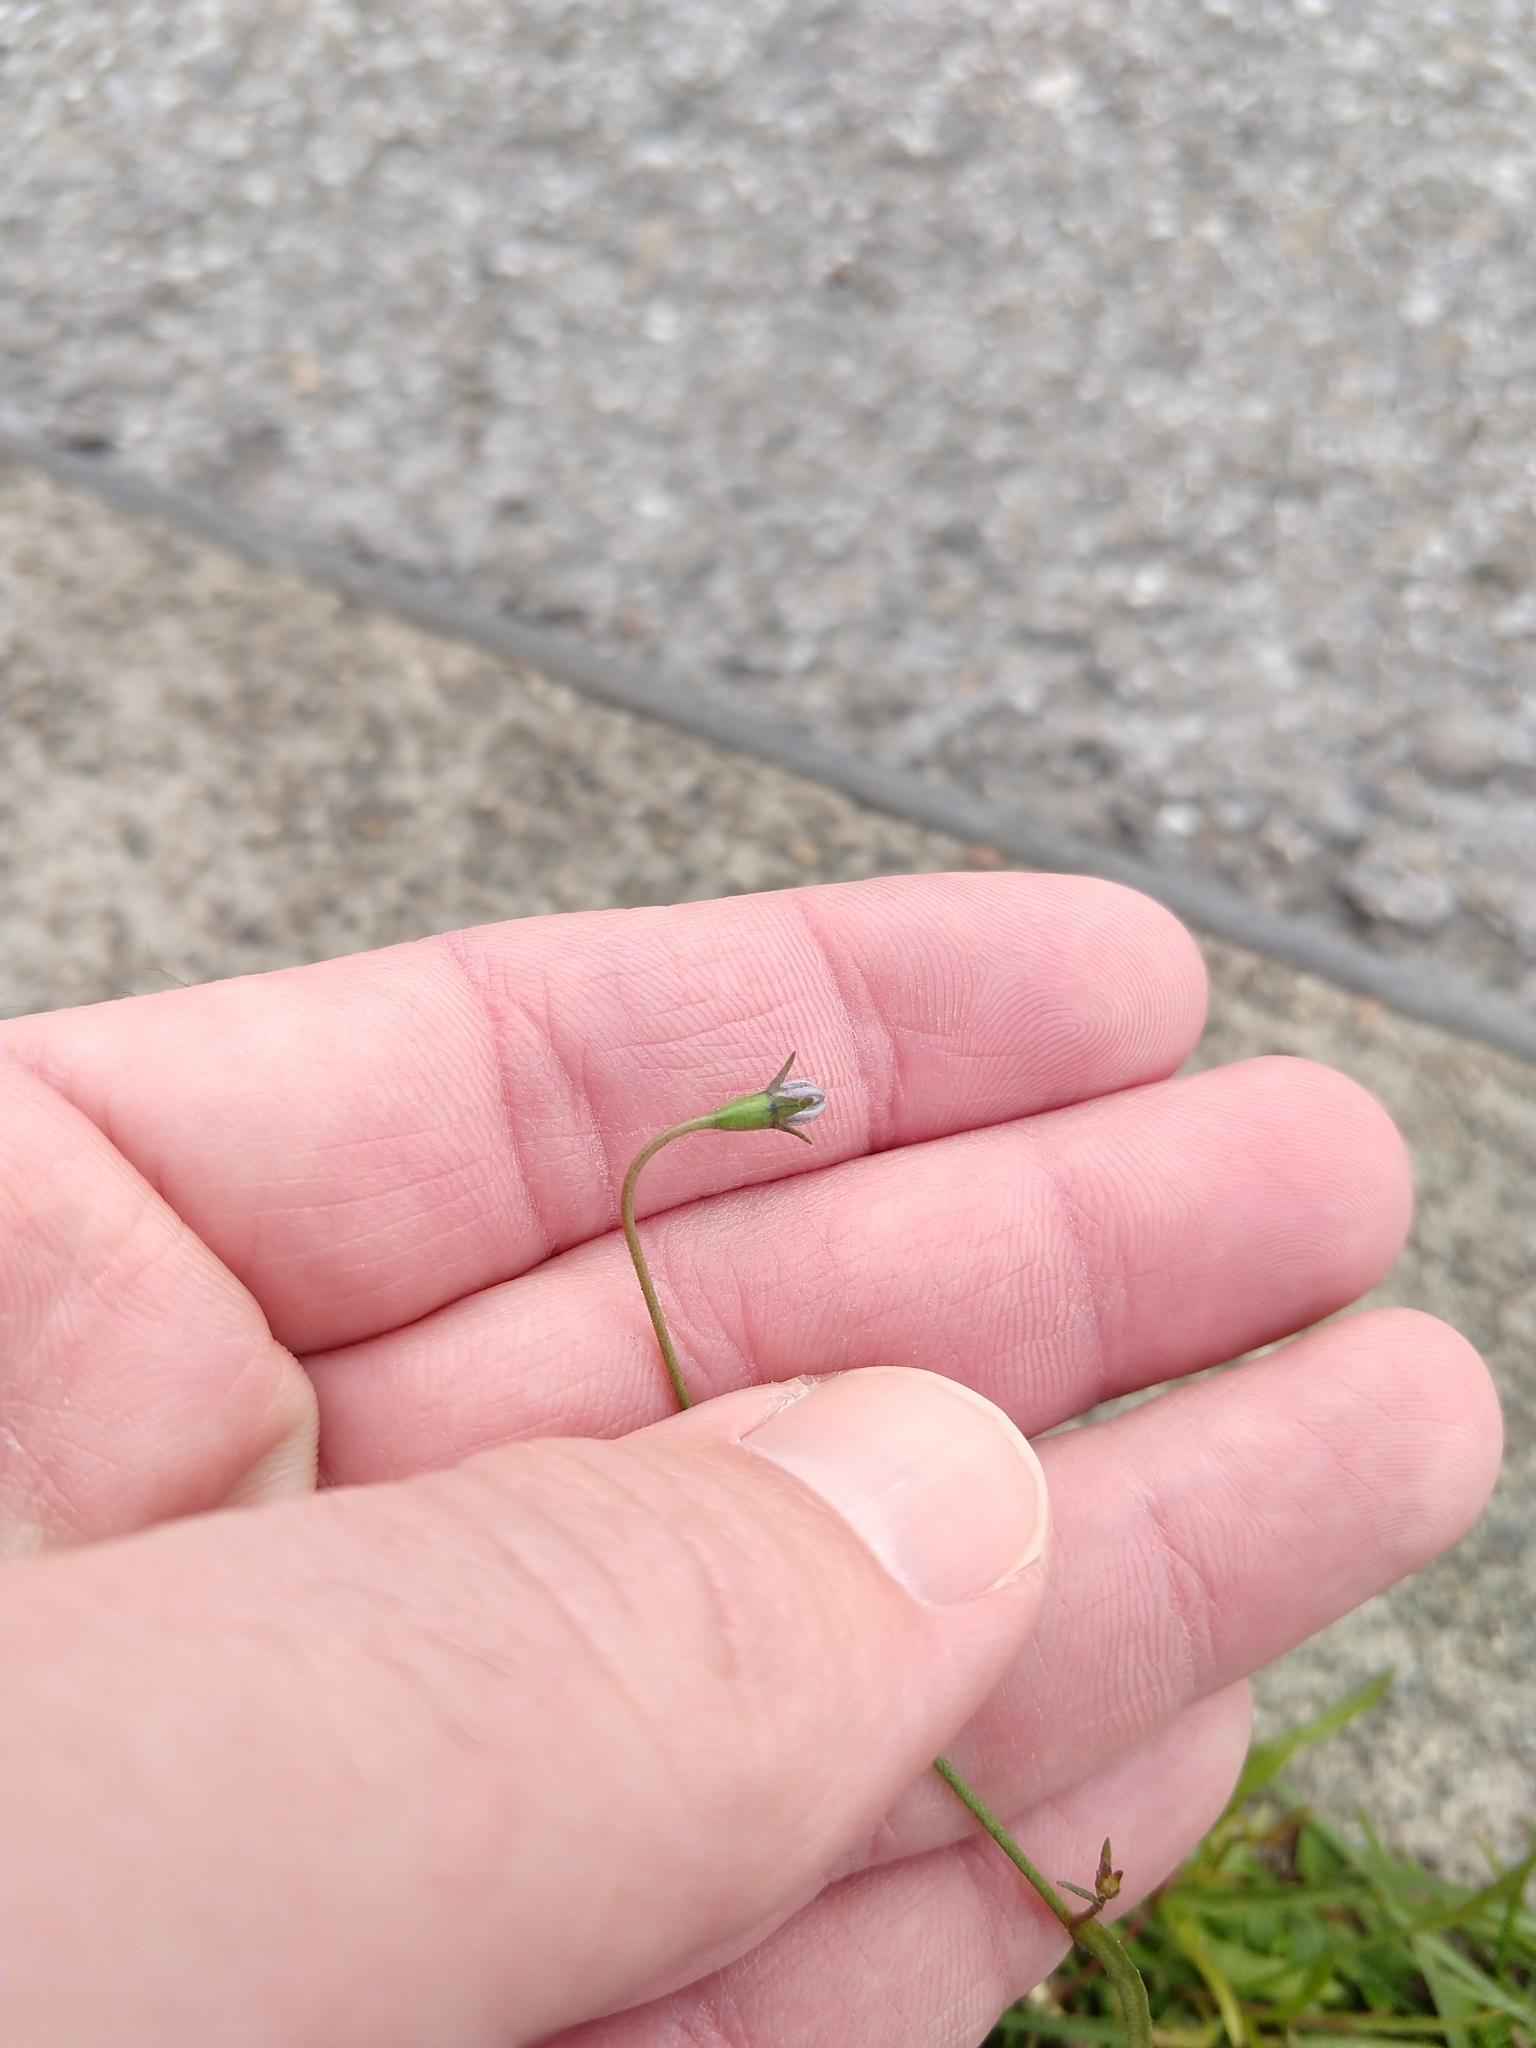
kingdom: Plantae
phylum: Tracheophyta
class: Magnoliopsida
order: Asterales
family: Campanulaceae
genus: Wahlenbergia
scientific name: Wahlenbergia marginata
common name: Southern rockbell
